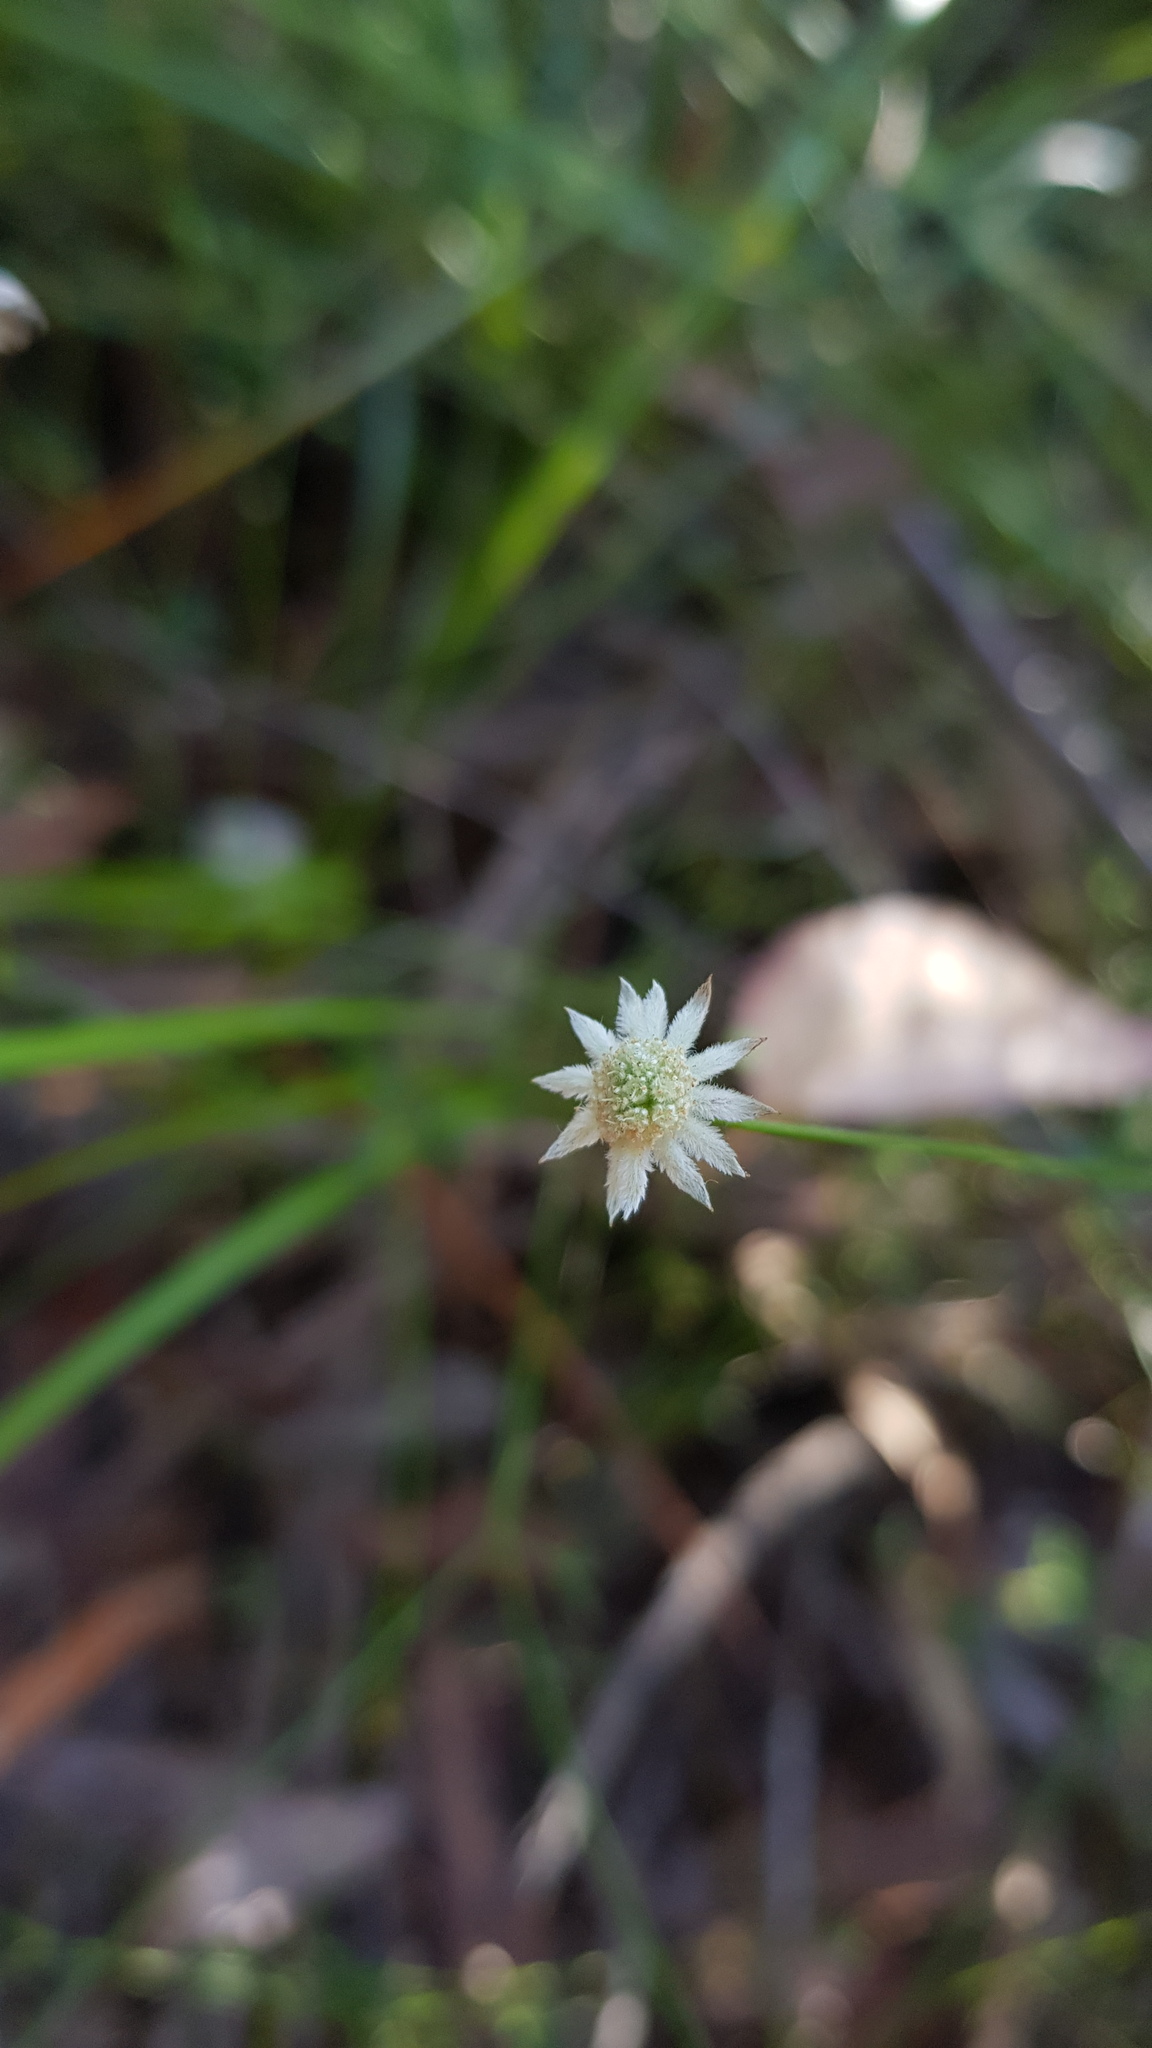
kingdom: Plantae
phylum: Tracheophyta
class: Magnoliopsida
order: Apiales
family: Apiaceae
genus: Actinotus
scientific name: Actinotus minor
